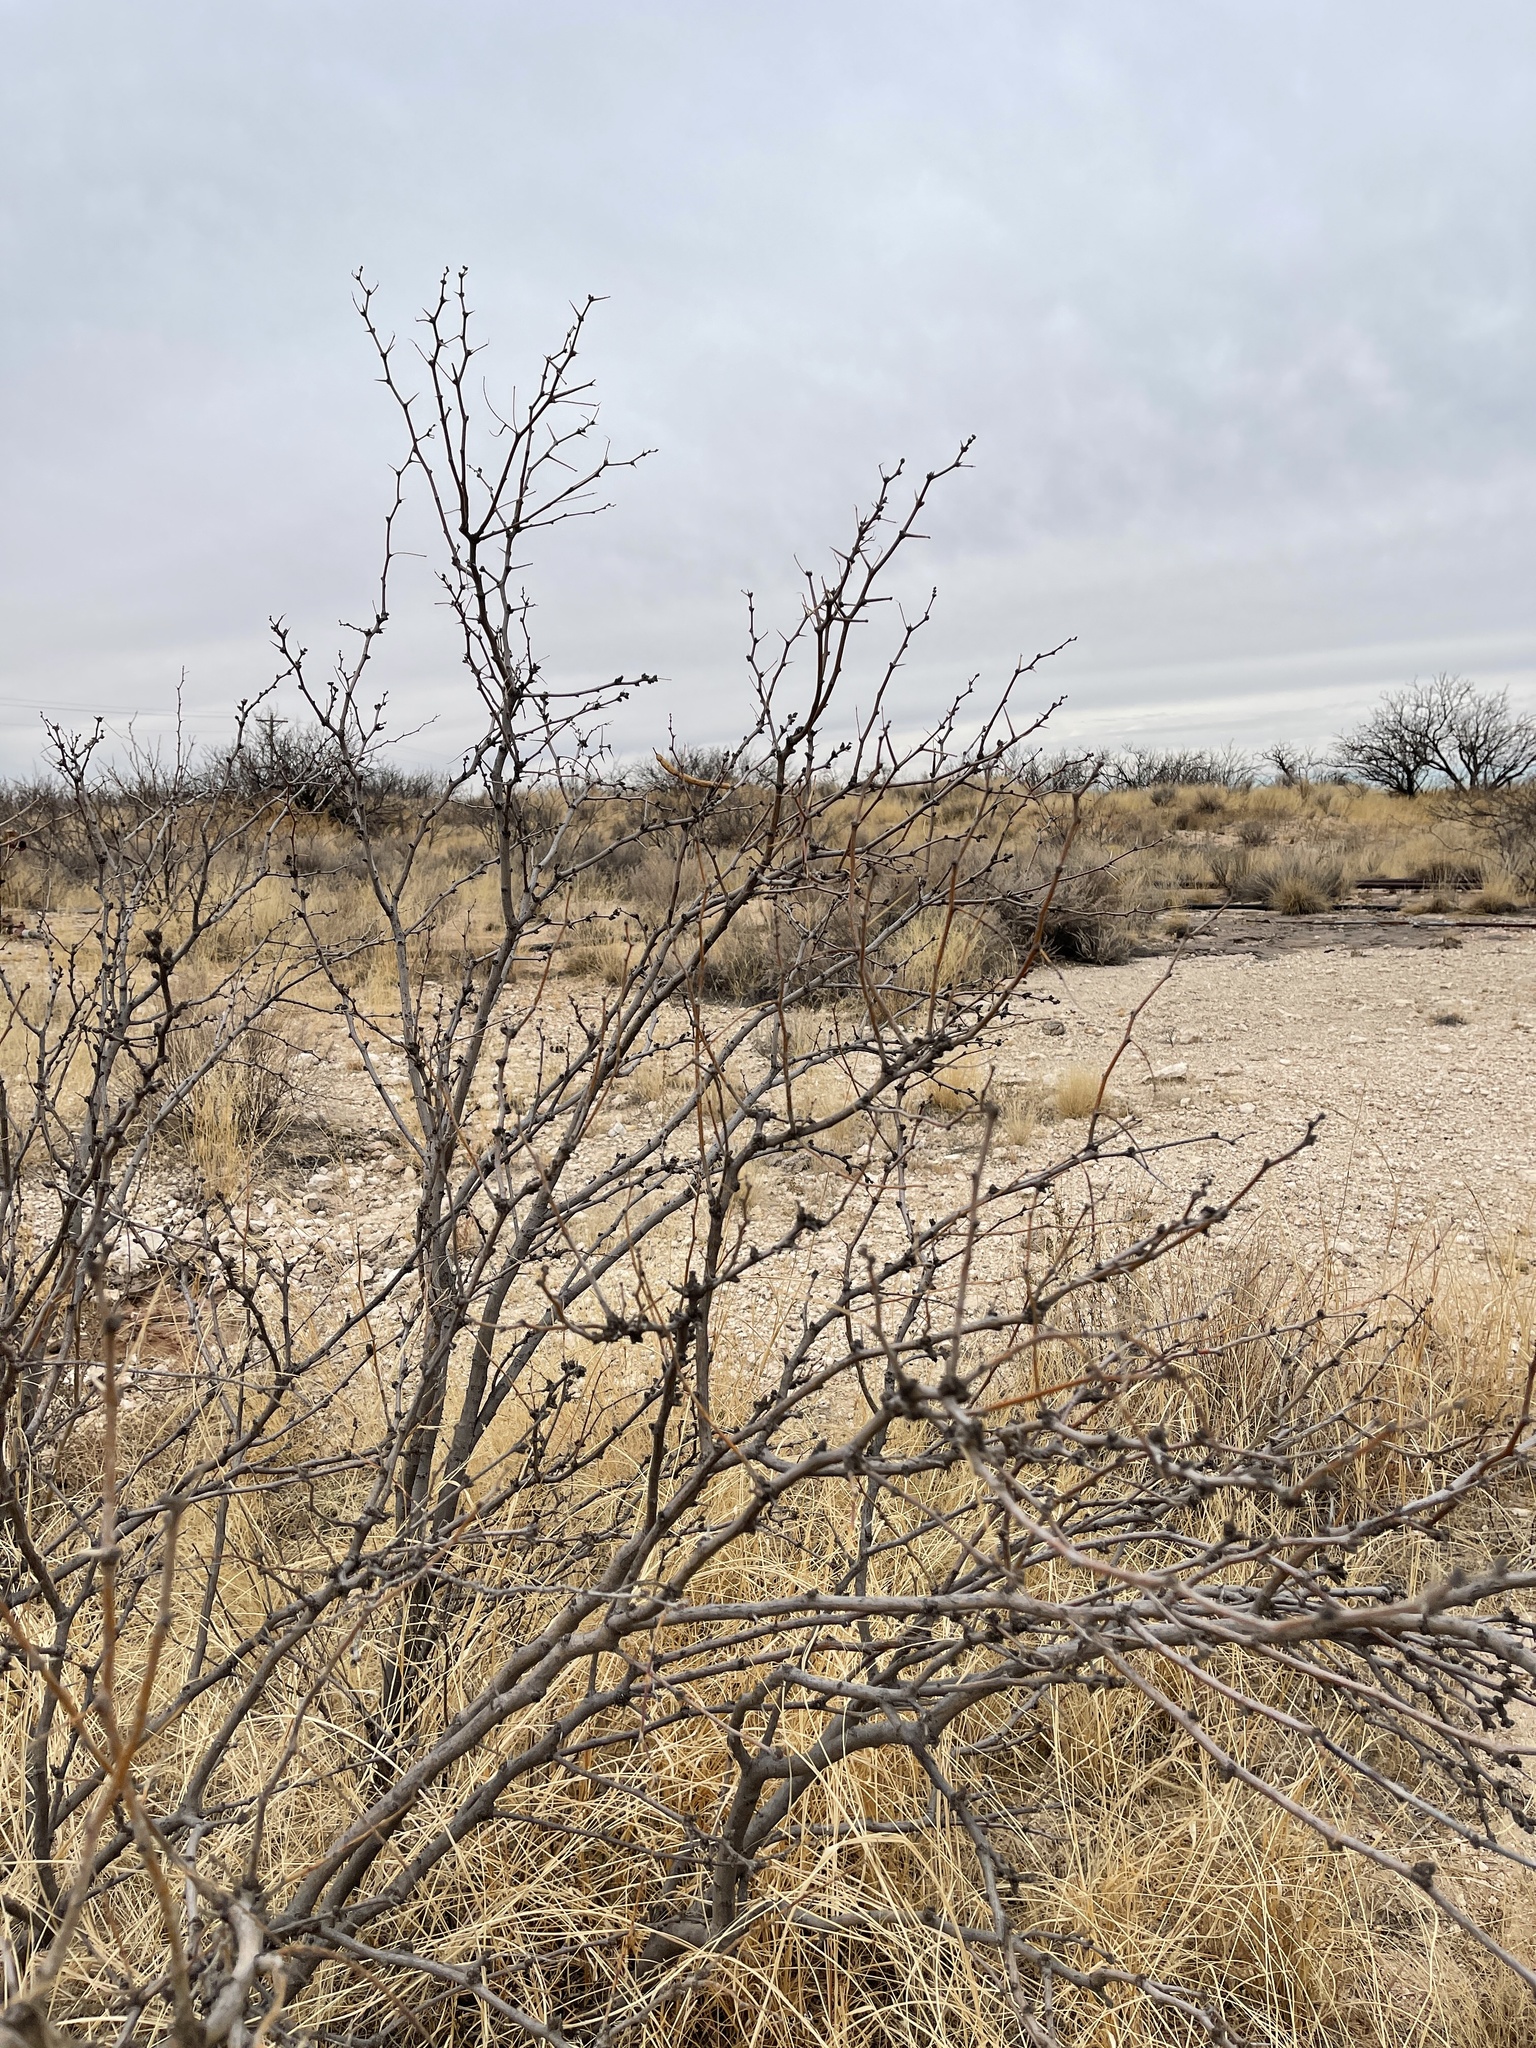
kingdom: Plantae
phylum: Tracheophyta
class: Magnoliopsida
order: Fabales
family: Fabaceae
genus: Prosopis
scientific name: Prosopis glandulosa
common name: Honey mesquite
